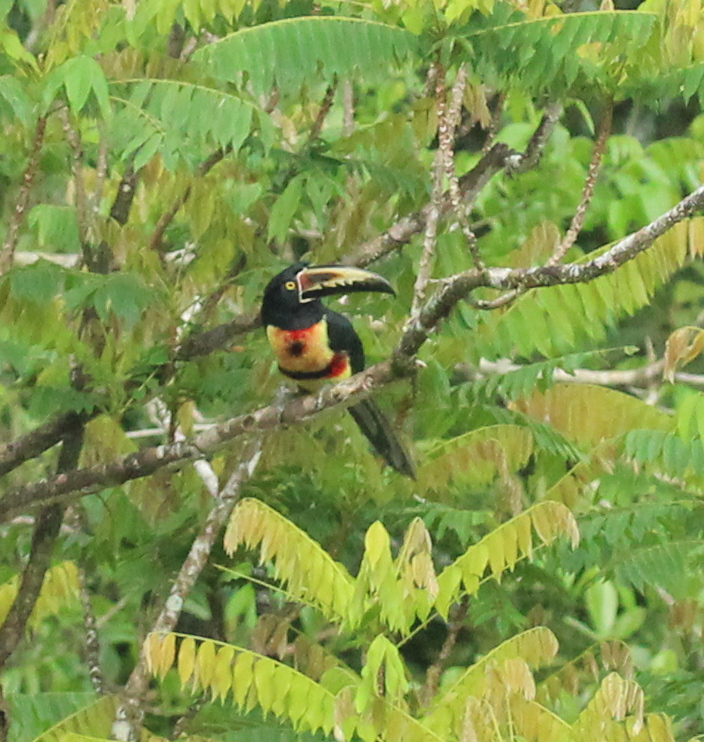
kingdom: Animalia
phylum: Chordata
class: Aves
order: Piciformes
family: Ramphastidae
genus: Pteroglossus
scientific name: Pteroglossus torquatus
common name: Collared aracari
